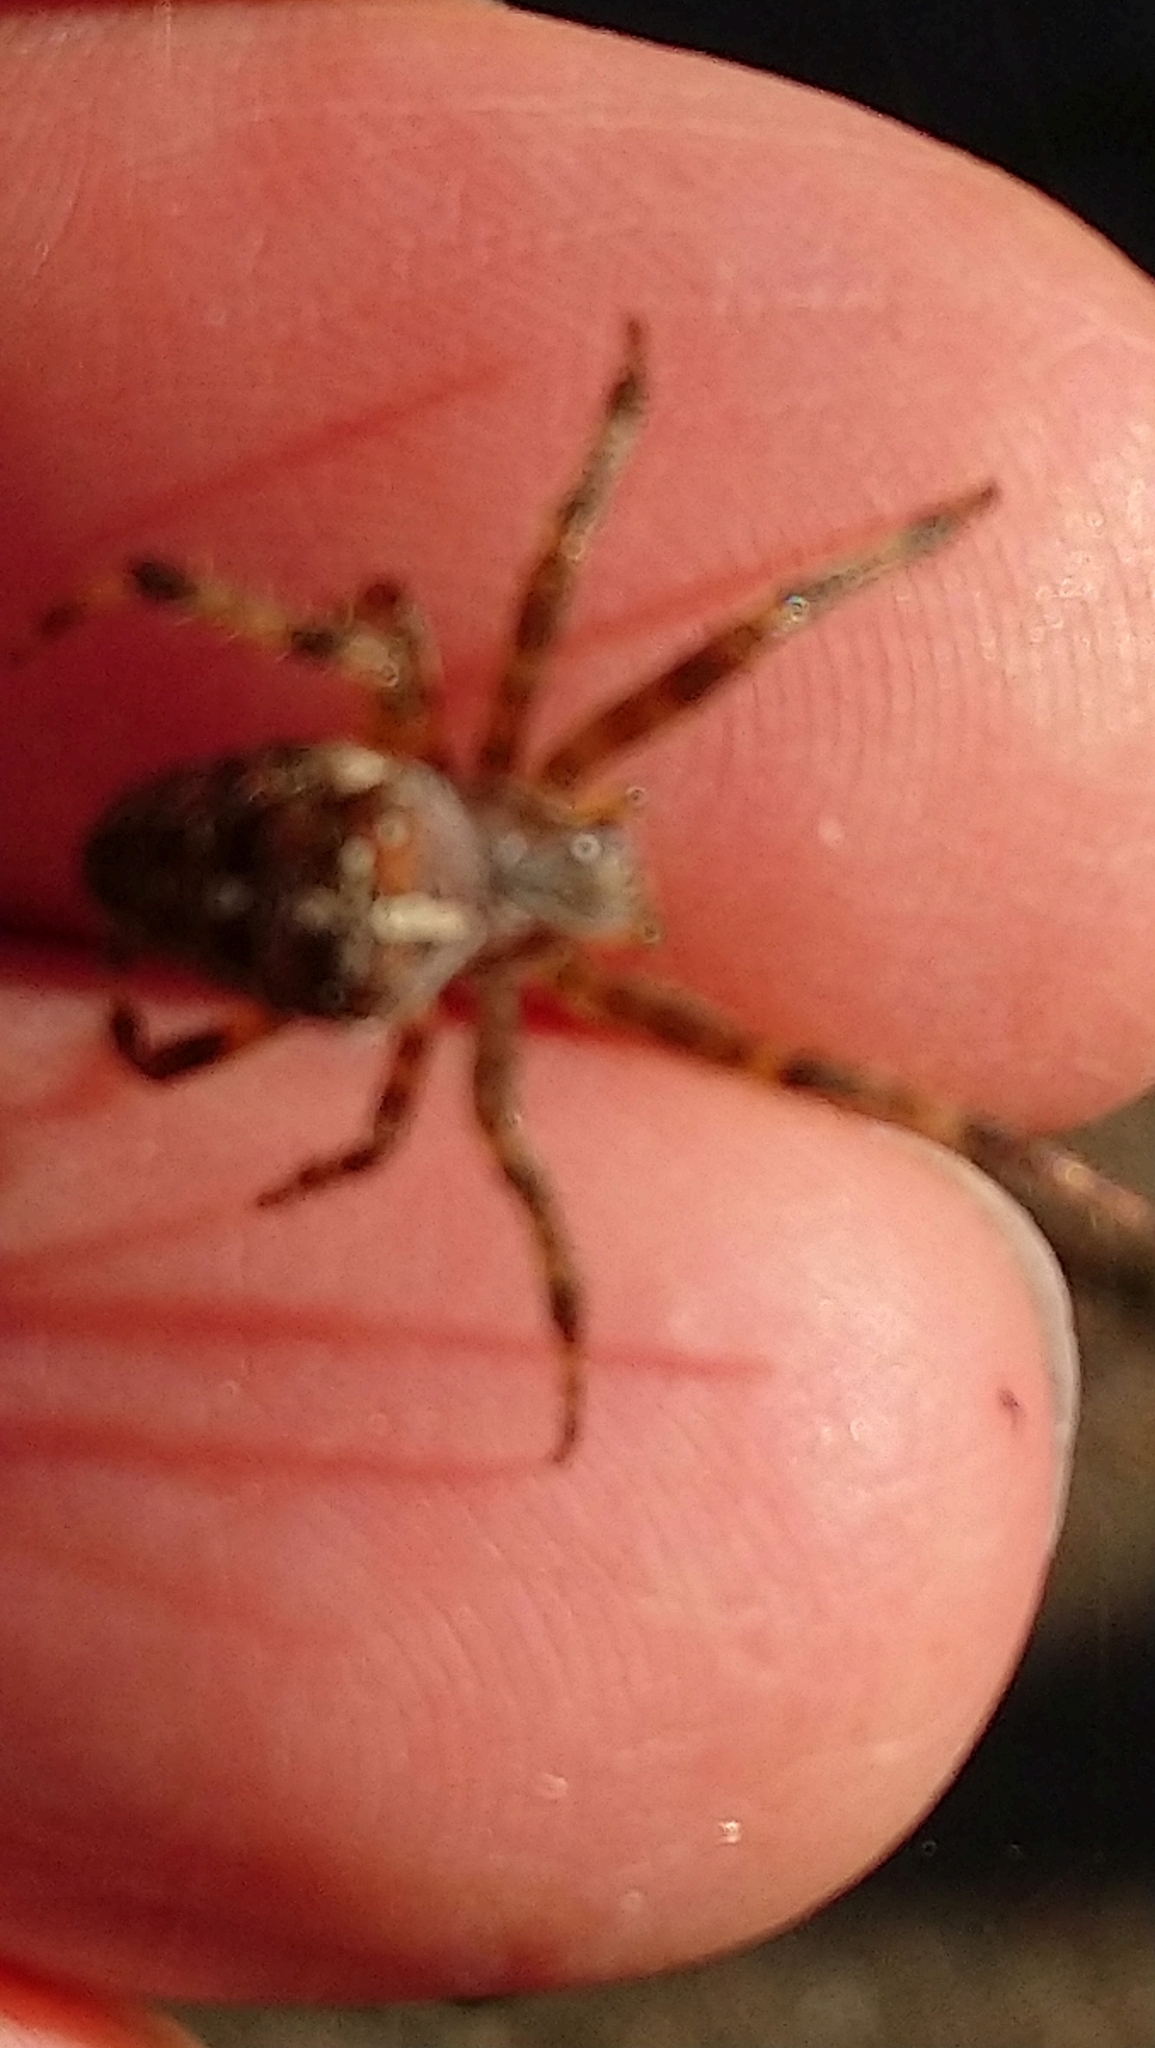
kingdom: Animalia
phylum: Arthropoda
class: Arachnida
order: Araneae
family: Araneidae
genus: Araneus
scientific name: Araneus diadematus
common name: Cross orbweaver
